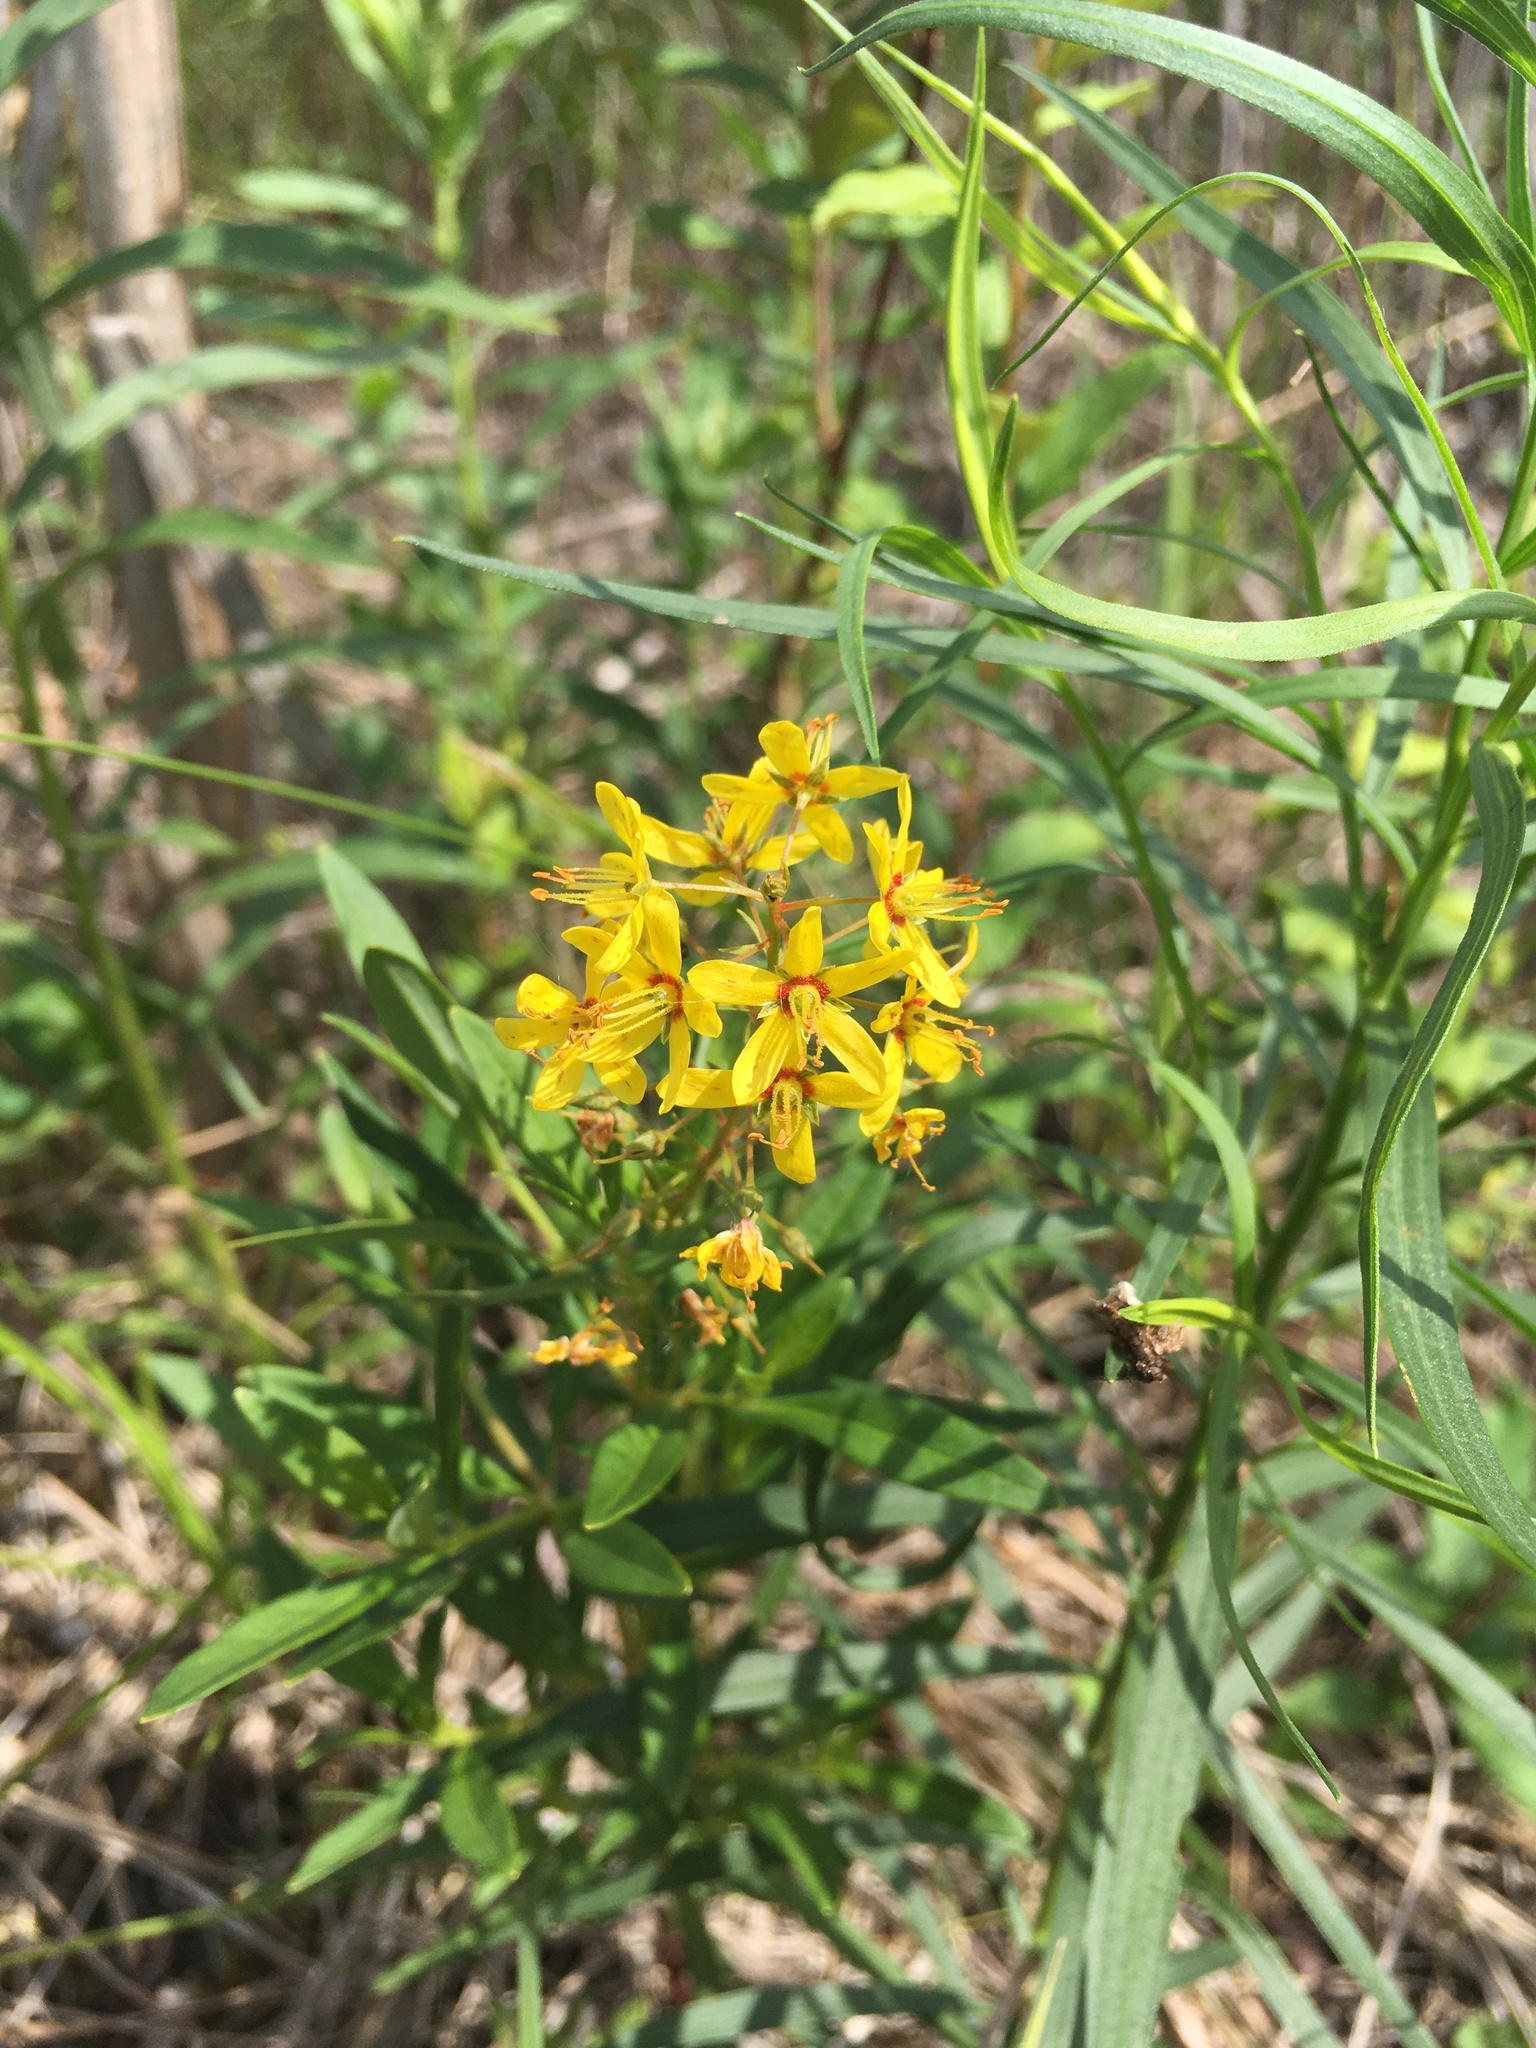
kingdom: Plantae
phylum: Tracheophyta
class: Magnoliopsida
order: Ericales
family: Primulaceae
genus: Lysimachia
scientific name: Lysimachia terrestris
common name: Lake loosestrife
